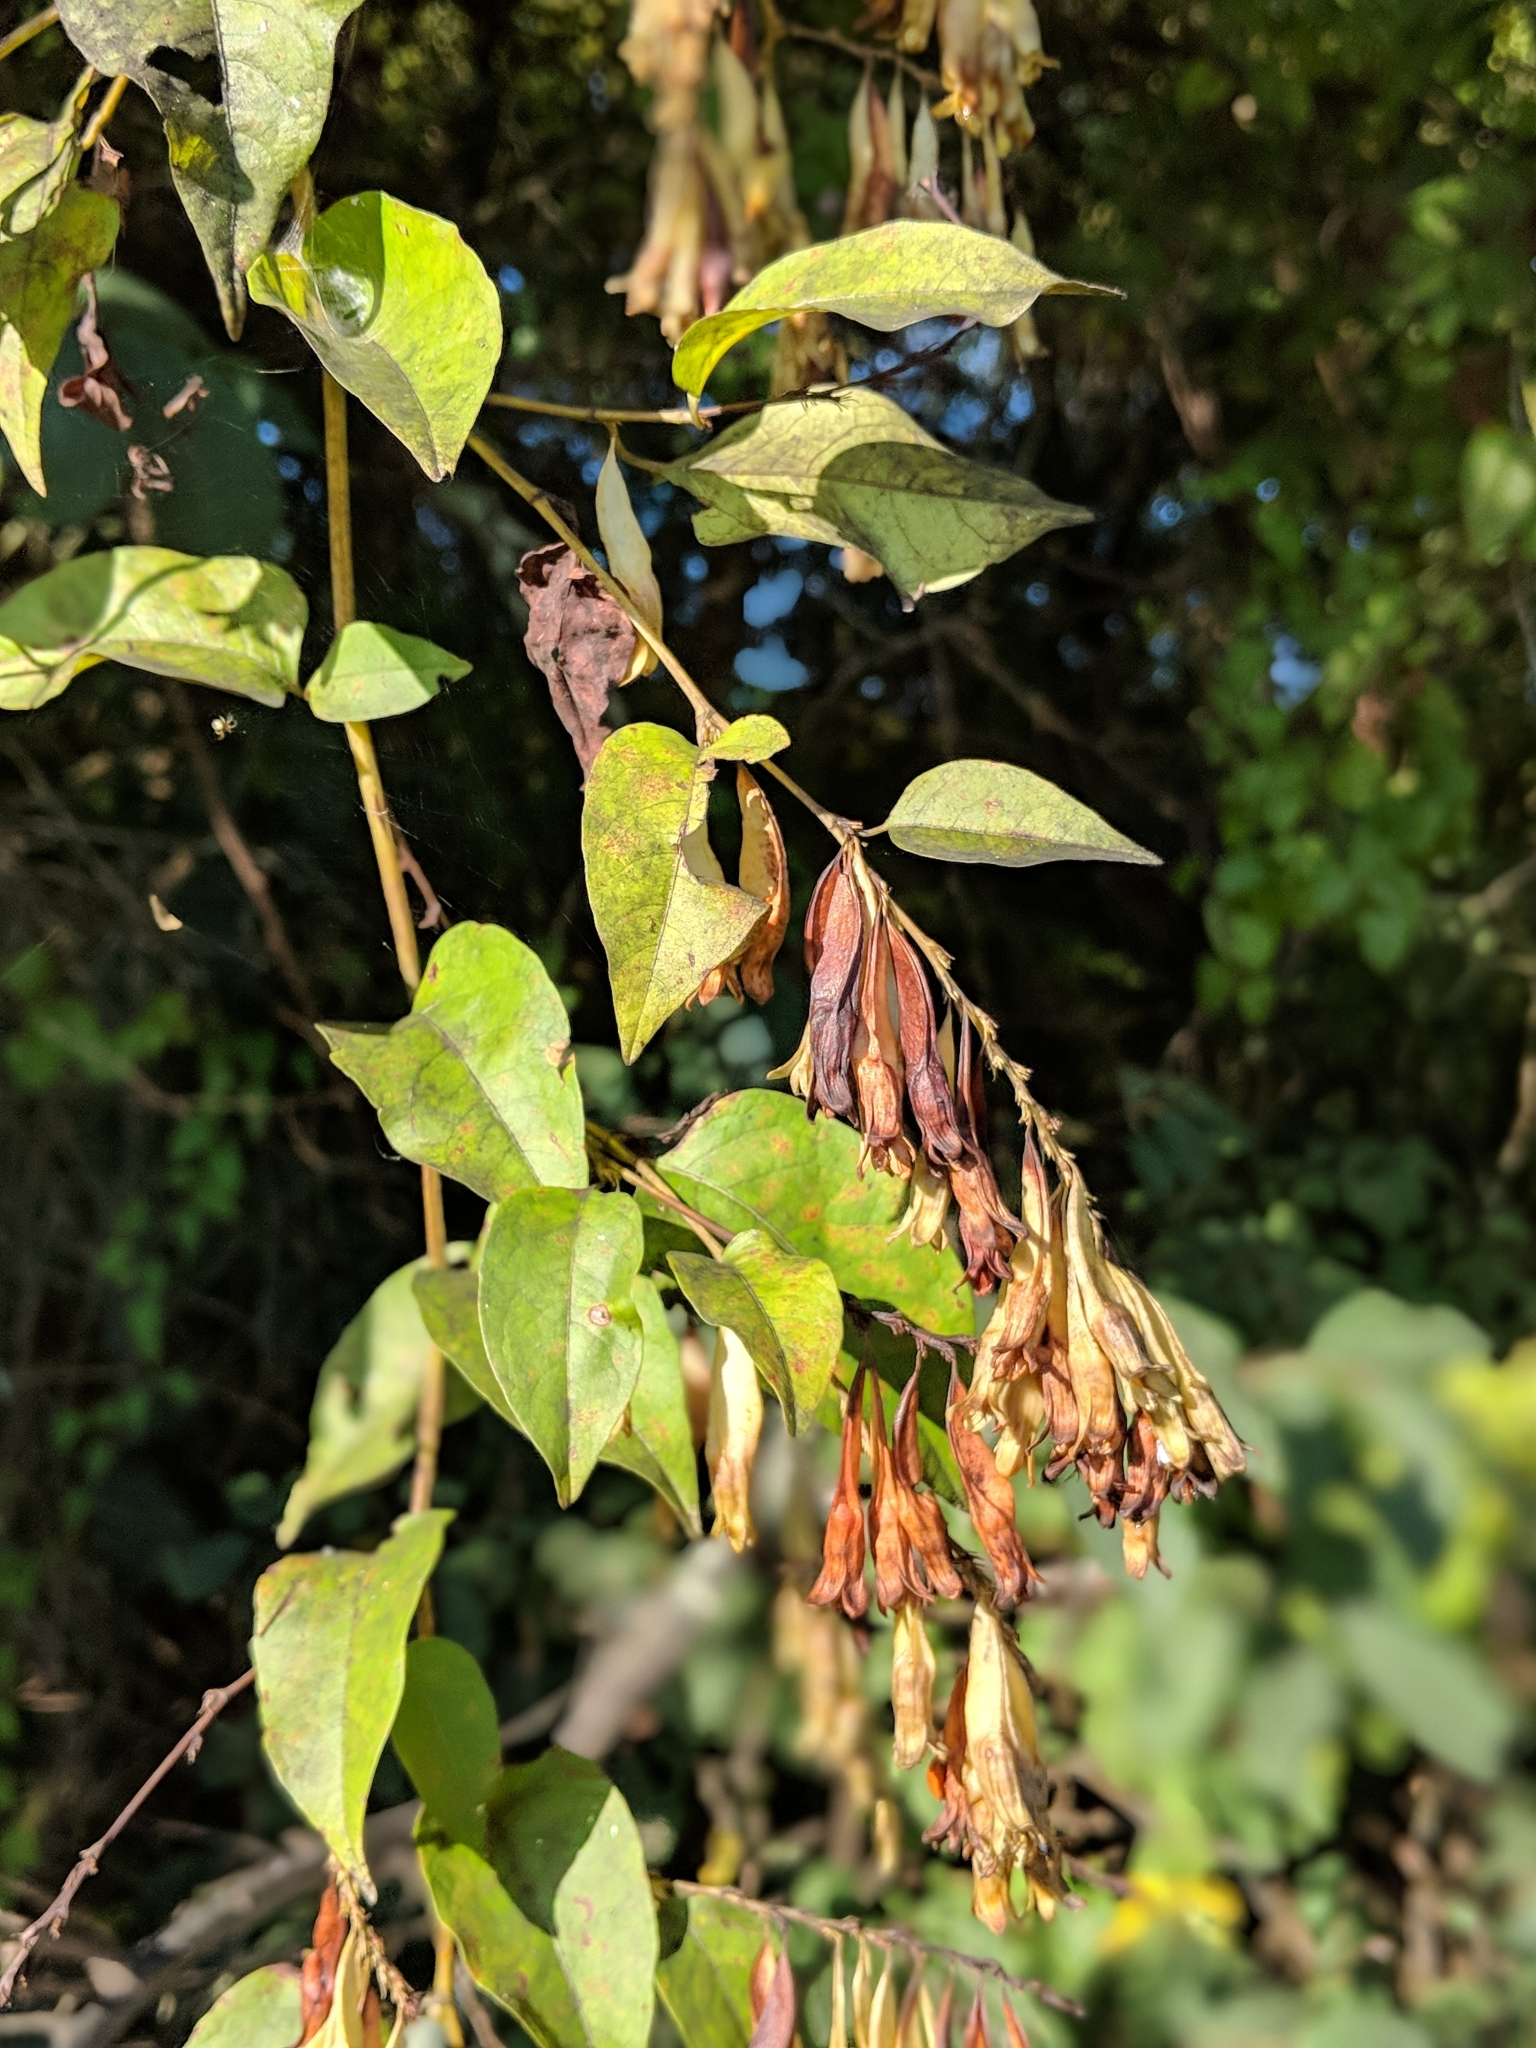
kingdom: Plantae
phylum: Tracheophyta
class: Magnoliopsida
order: Caryophyllales
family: Polygonaceae
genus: Brunnichia
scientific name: Brunnichia ovata
